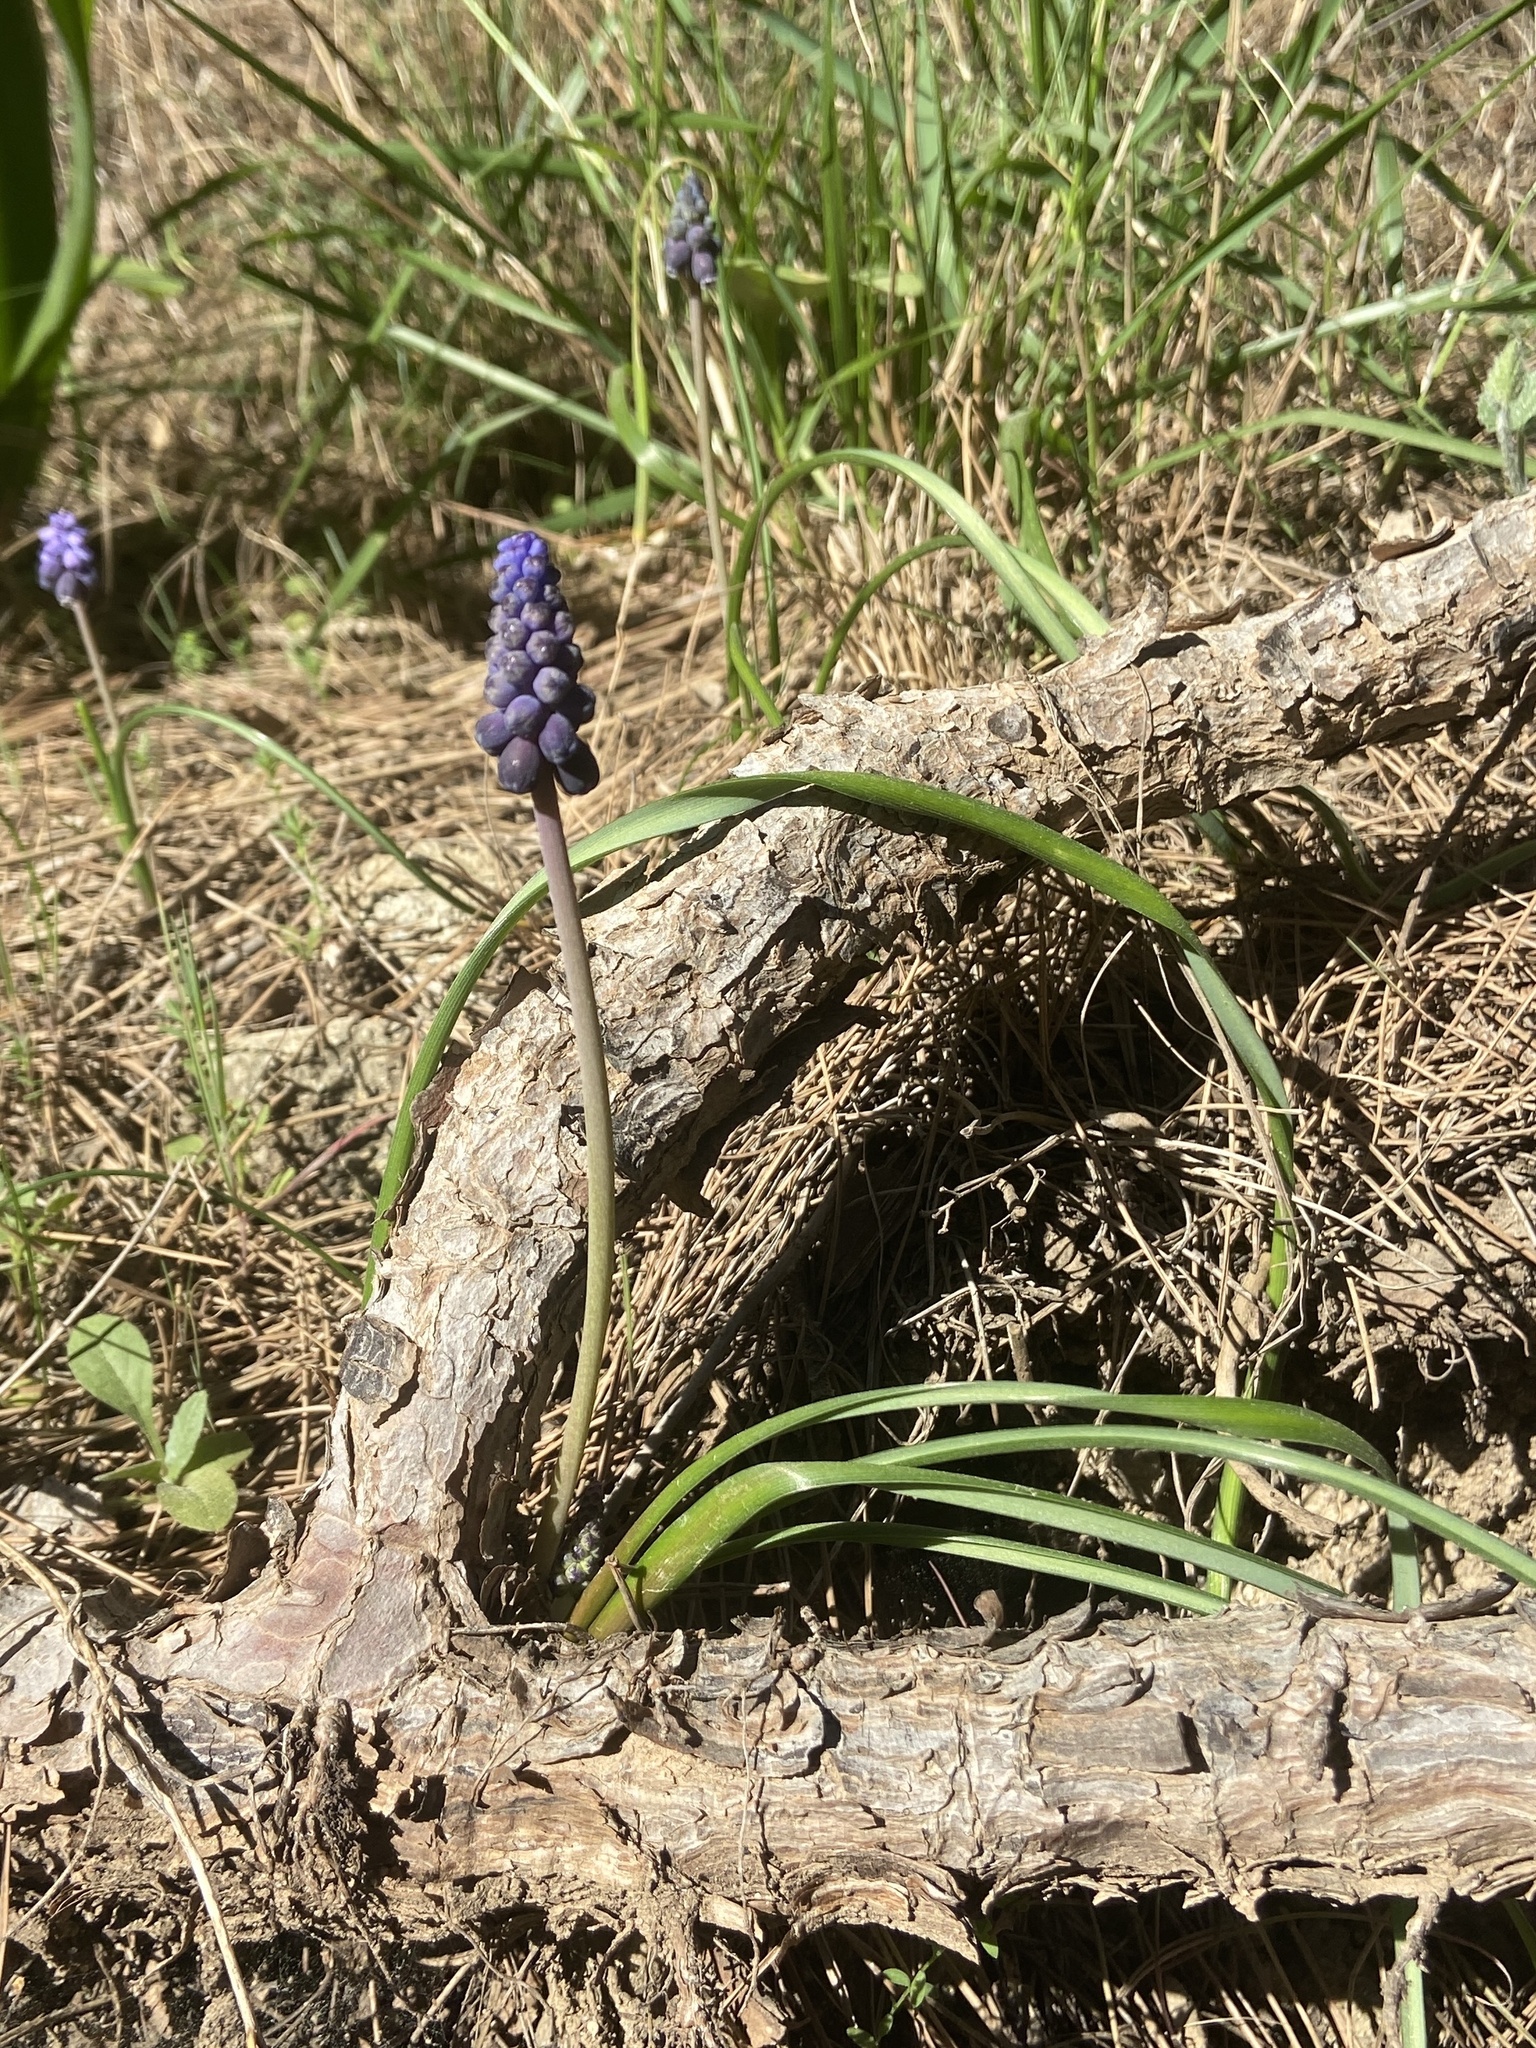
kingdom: Plantae
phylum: Tracheophyta
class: Liliopsida
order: Asparagales
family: Asparagaceae
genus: Muscari
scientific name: Muscari neglectum
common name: Grape-hyacinth
